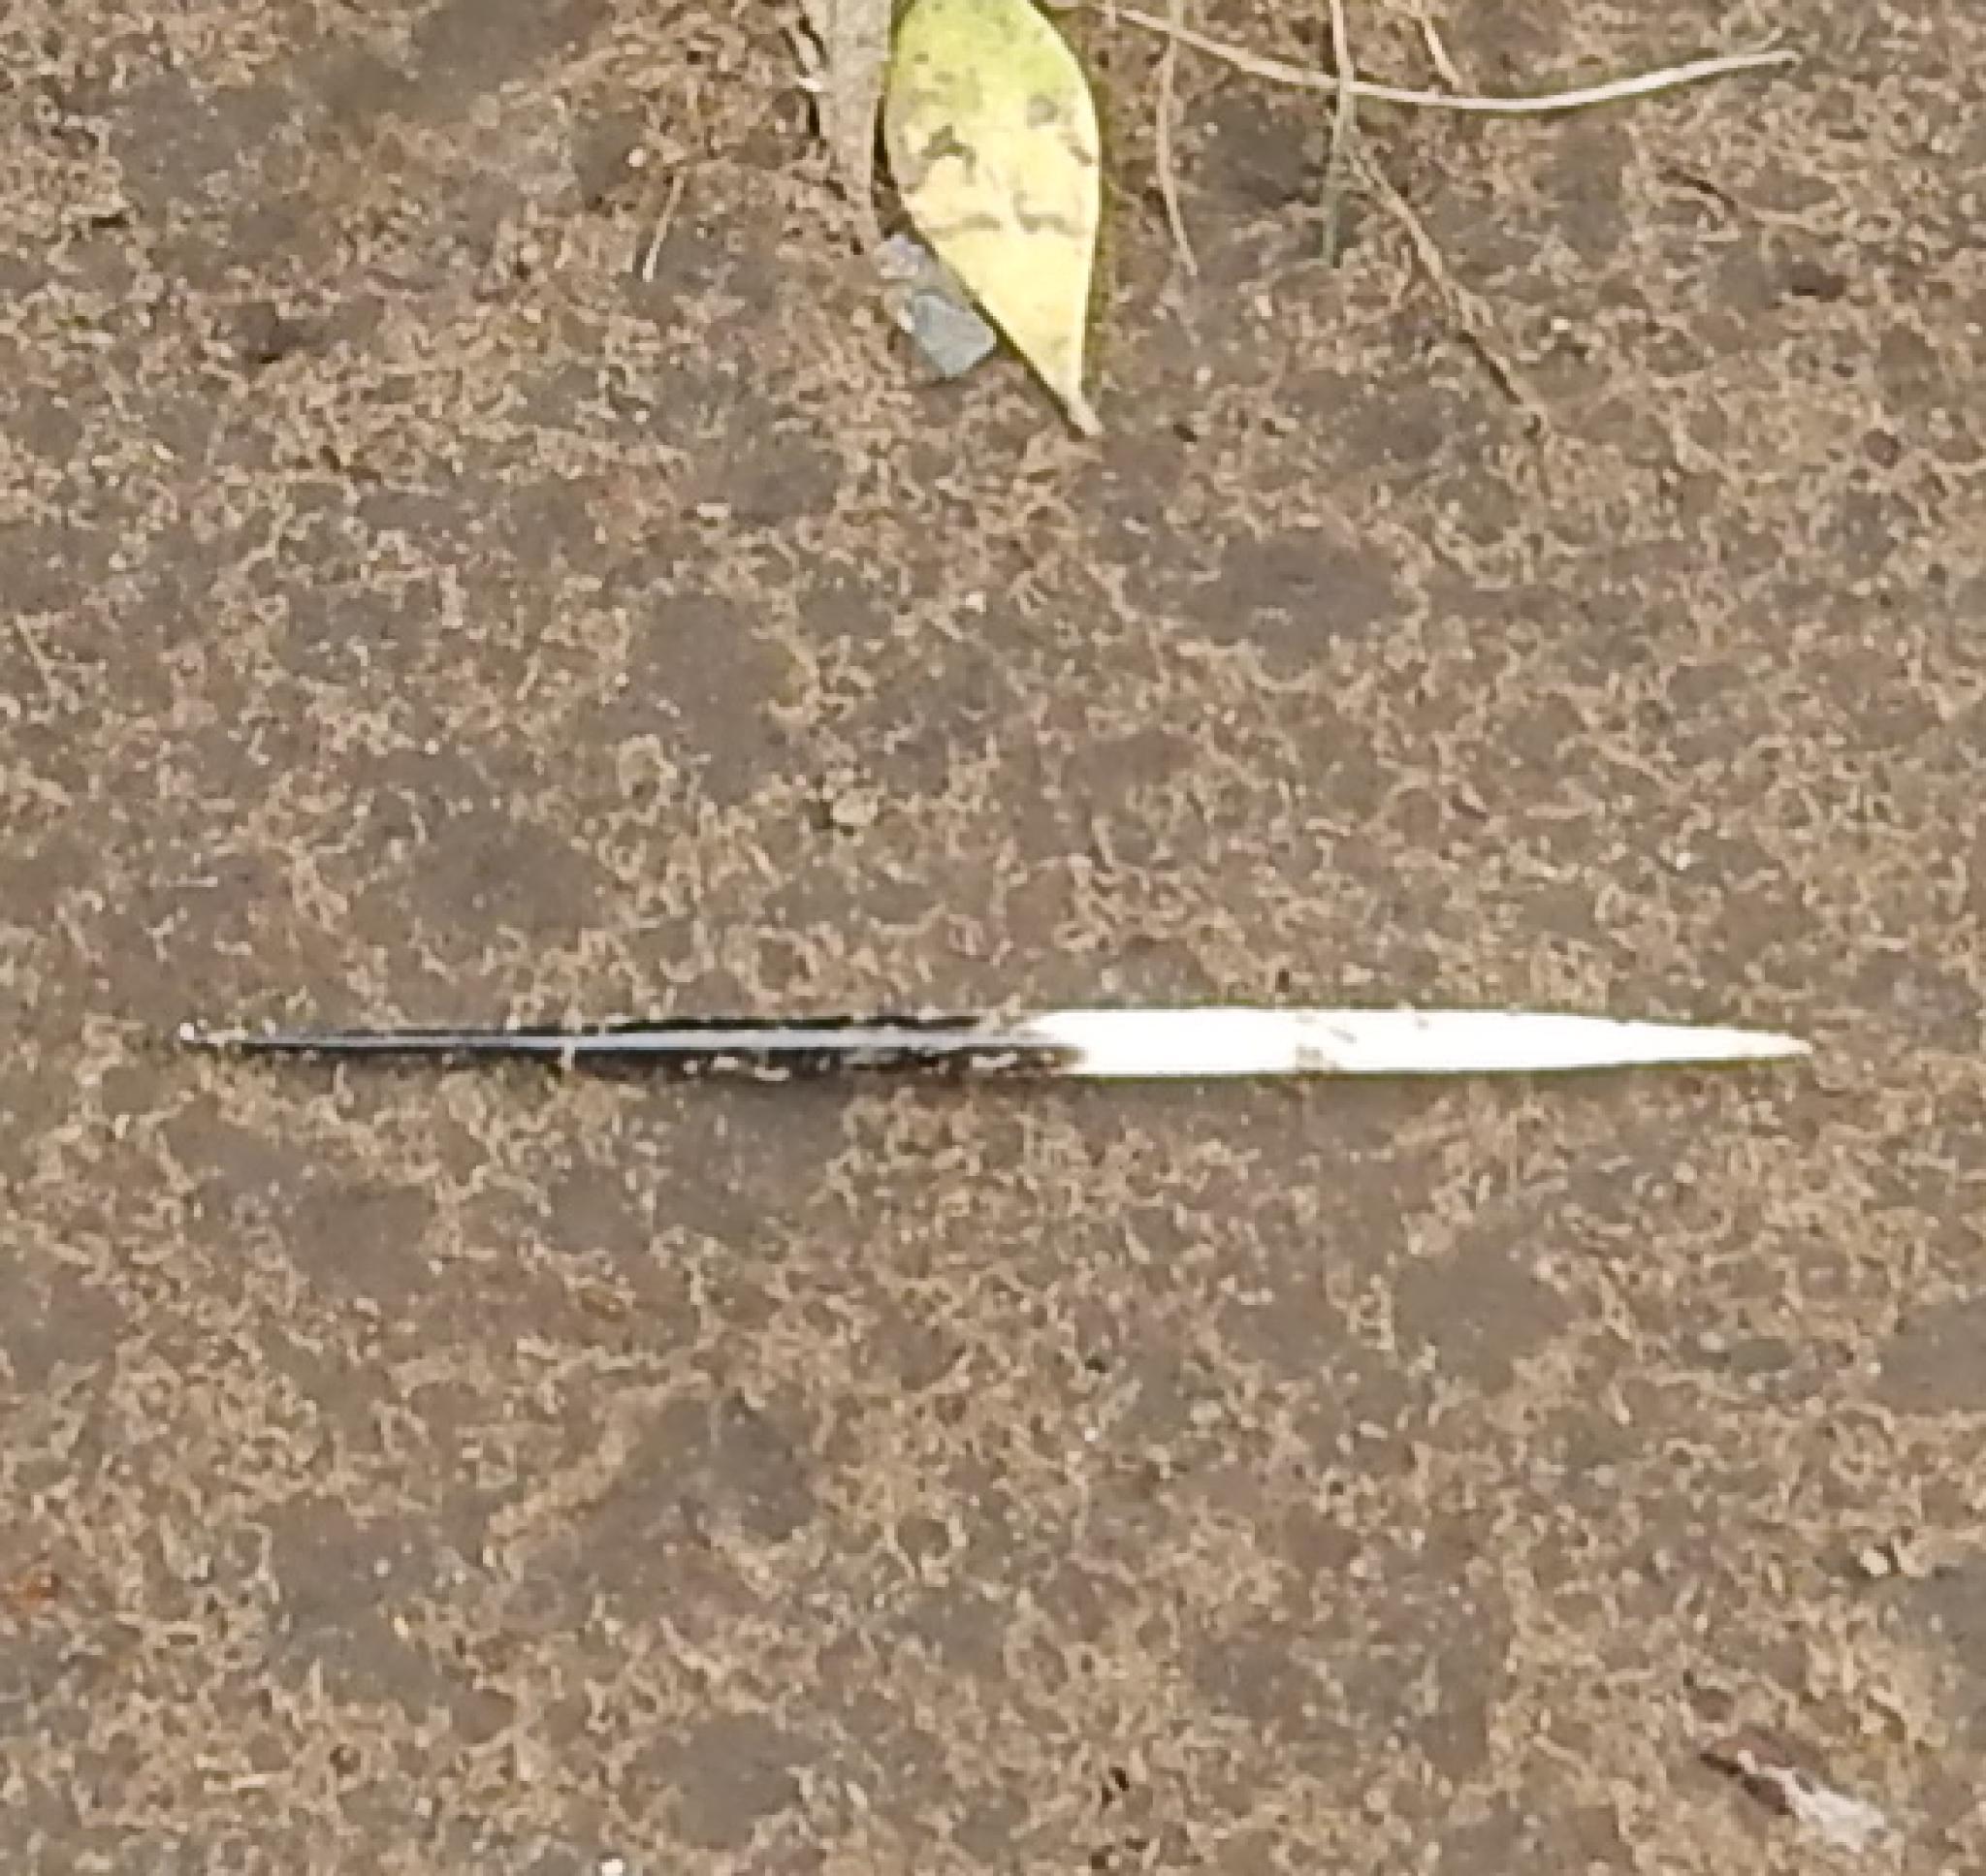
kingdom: Animalia
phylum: Chordata
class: Mammalia
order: Rodentia
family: Hystricidae
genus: Hystrix
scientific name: Hystrix africaeaustralis
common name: Cape porcupine
